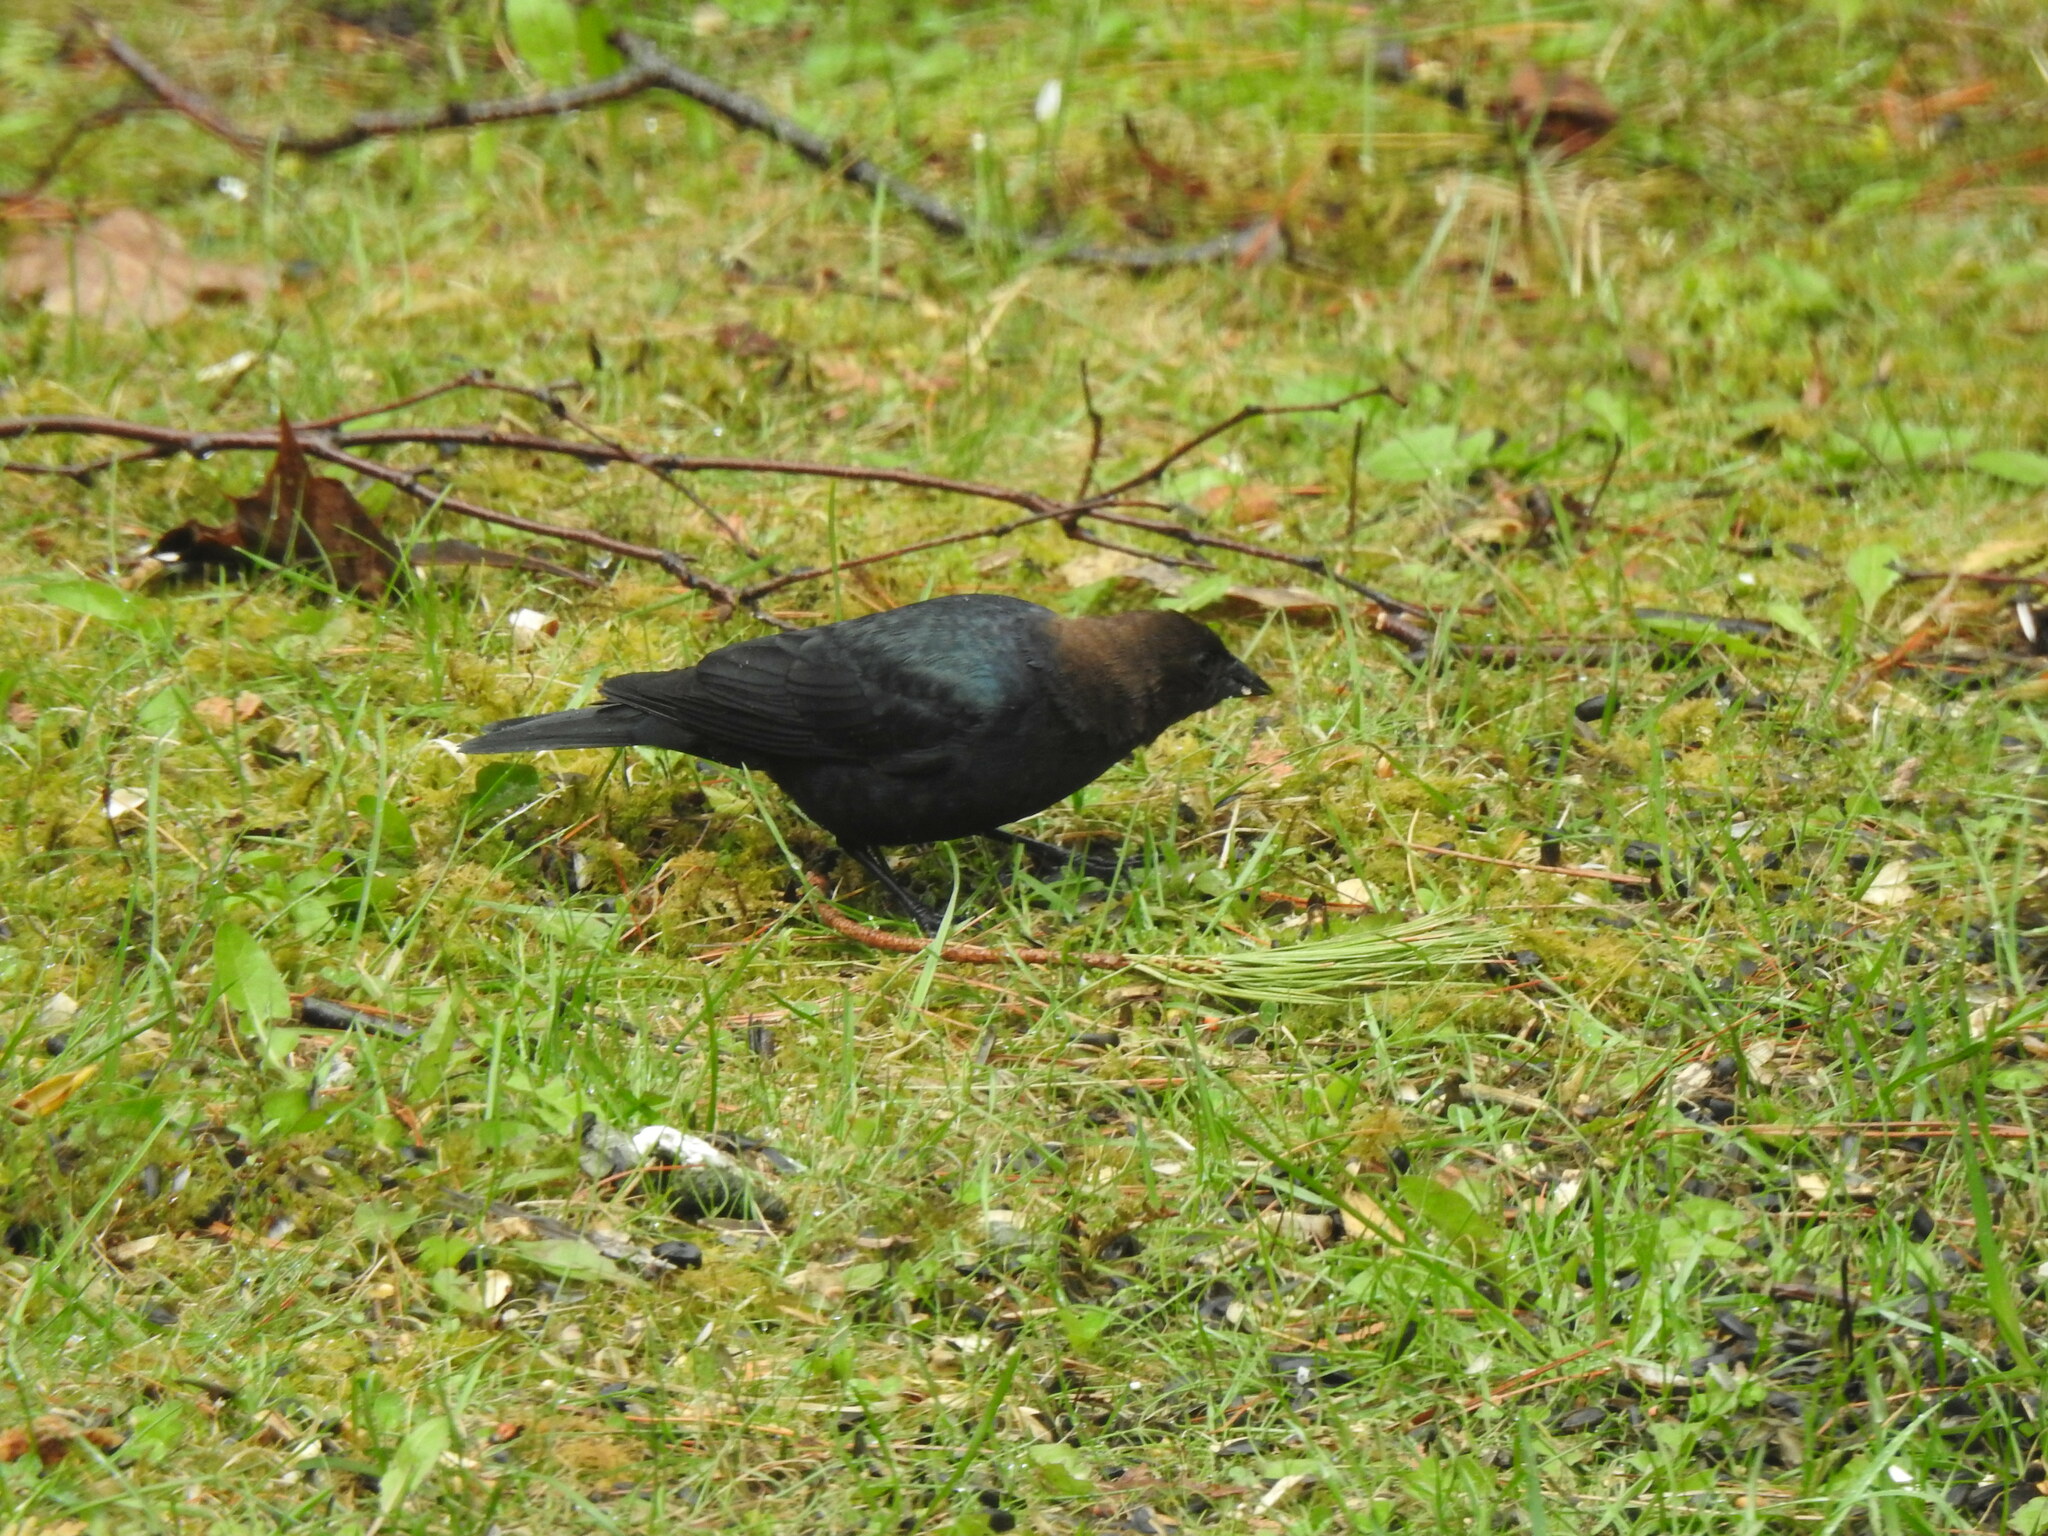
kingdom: Animalia
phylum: Chordata
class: Aves
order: Passeriformes
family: Icteridae
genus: Molothrus
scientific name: Molothrus ater
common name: Brown-headed cowbird
